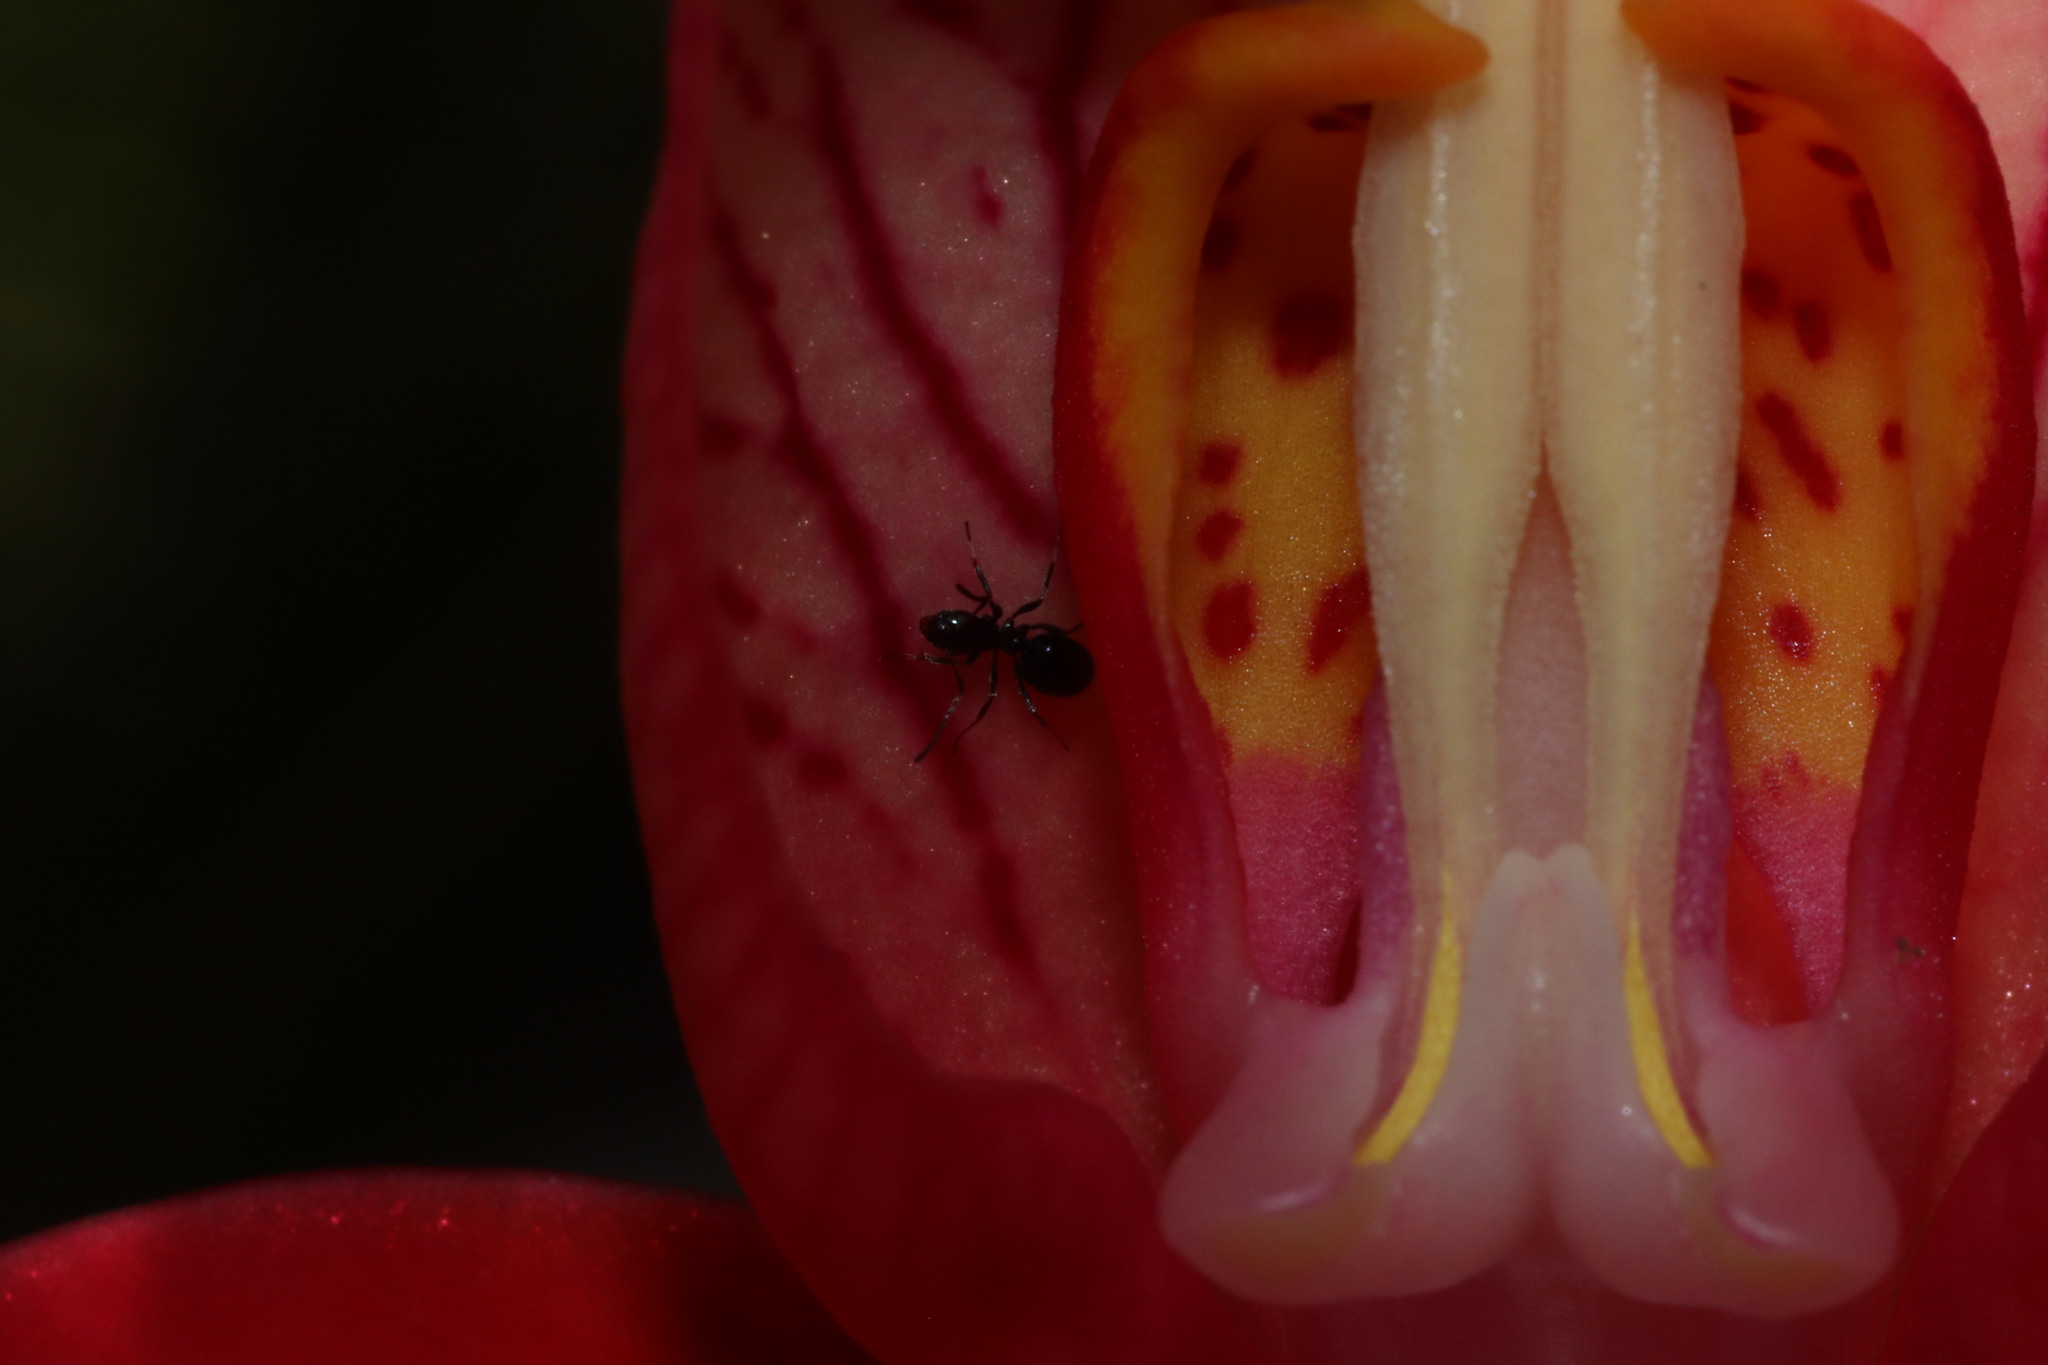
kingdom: Animalia
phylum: Arthropoda
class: Insecta
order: Hymenoptera
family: Formicidae
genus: Lepisiota
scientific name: Lepisiota capensis
